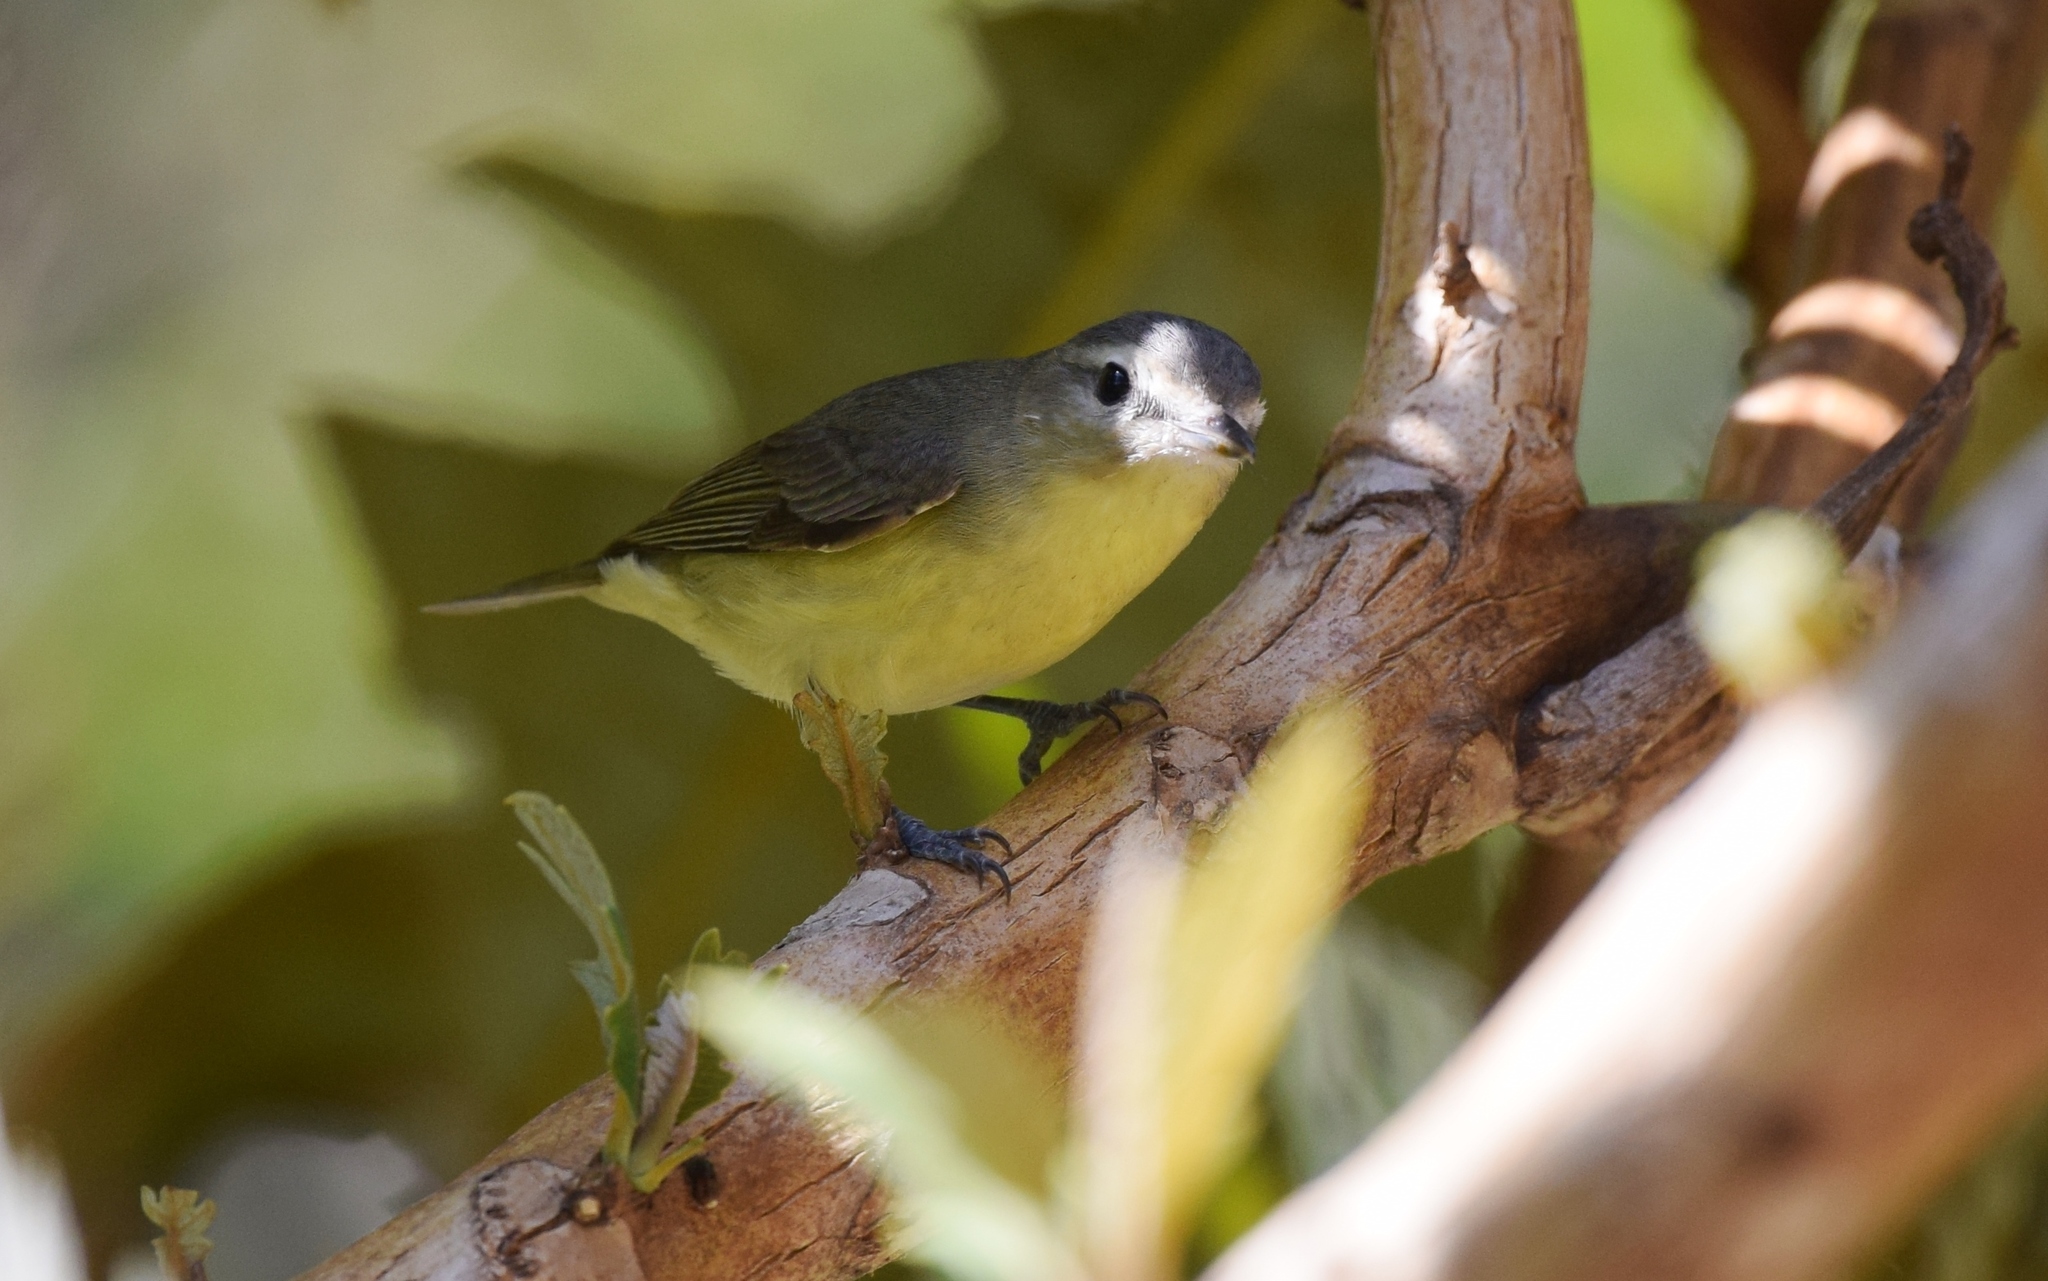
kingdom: Animalia
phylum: Chordata
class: Aves
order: Passeriformes
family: Vireonidae
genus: Vireo
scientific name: Vireo philadelphicus
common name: Philadelphia vireo
